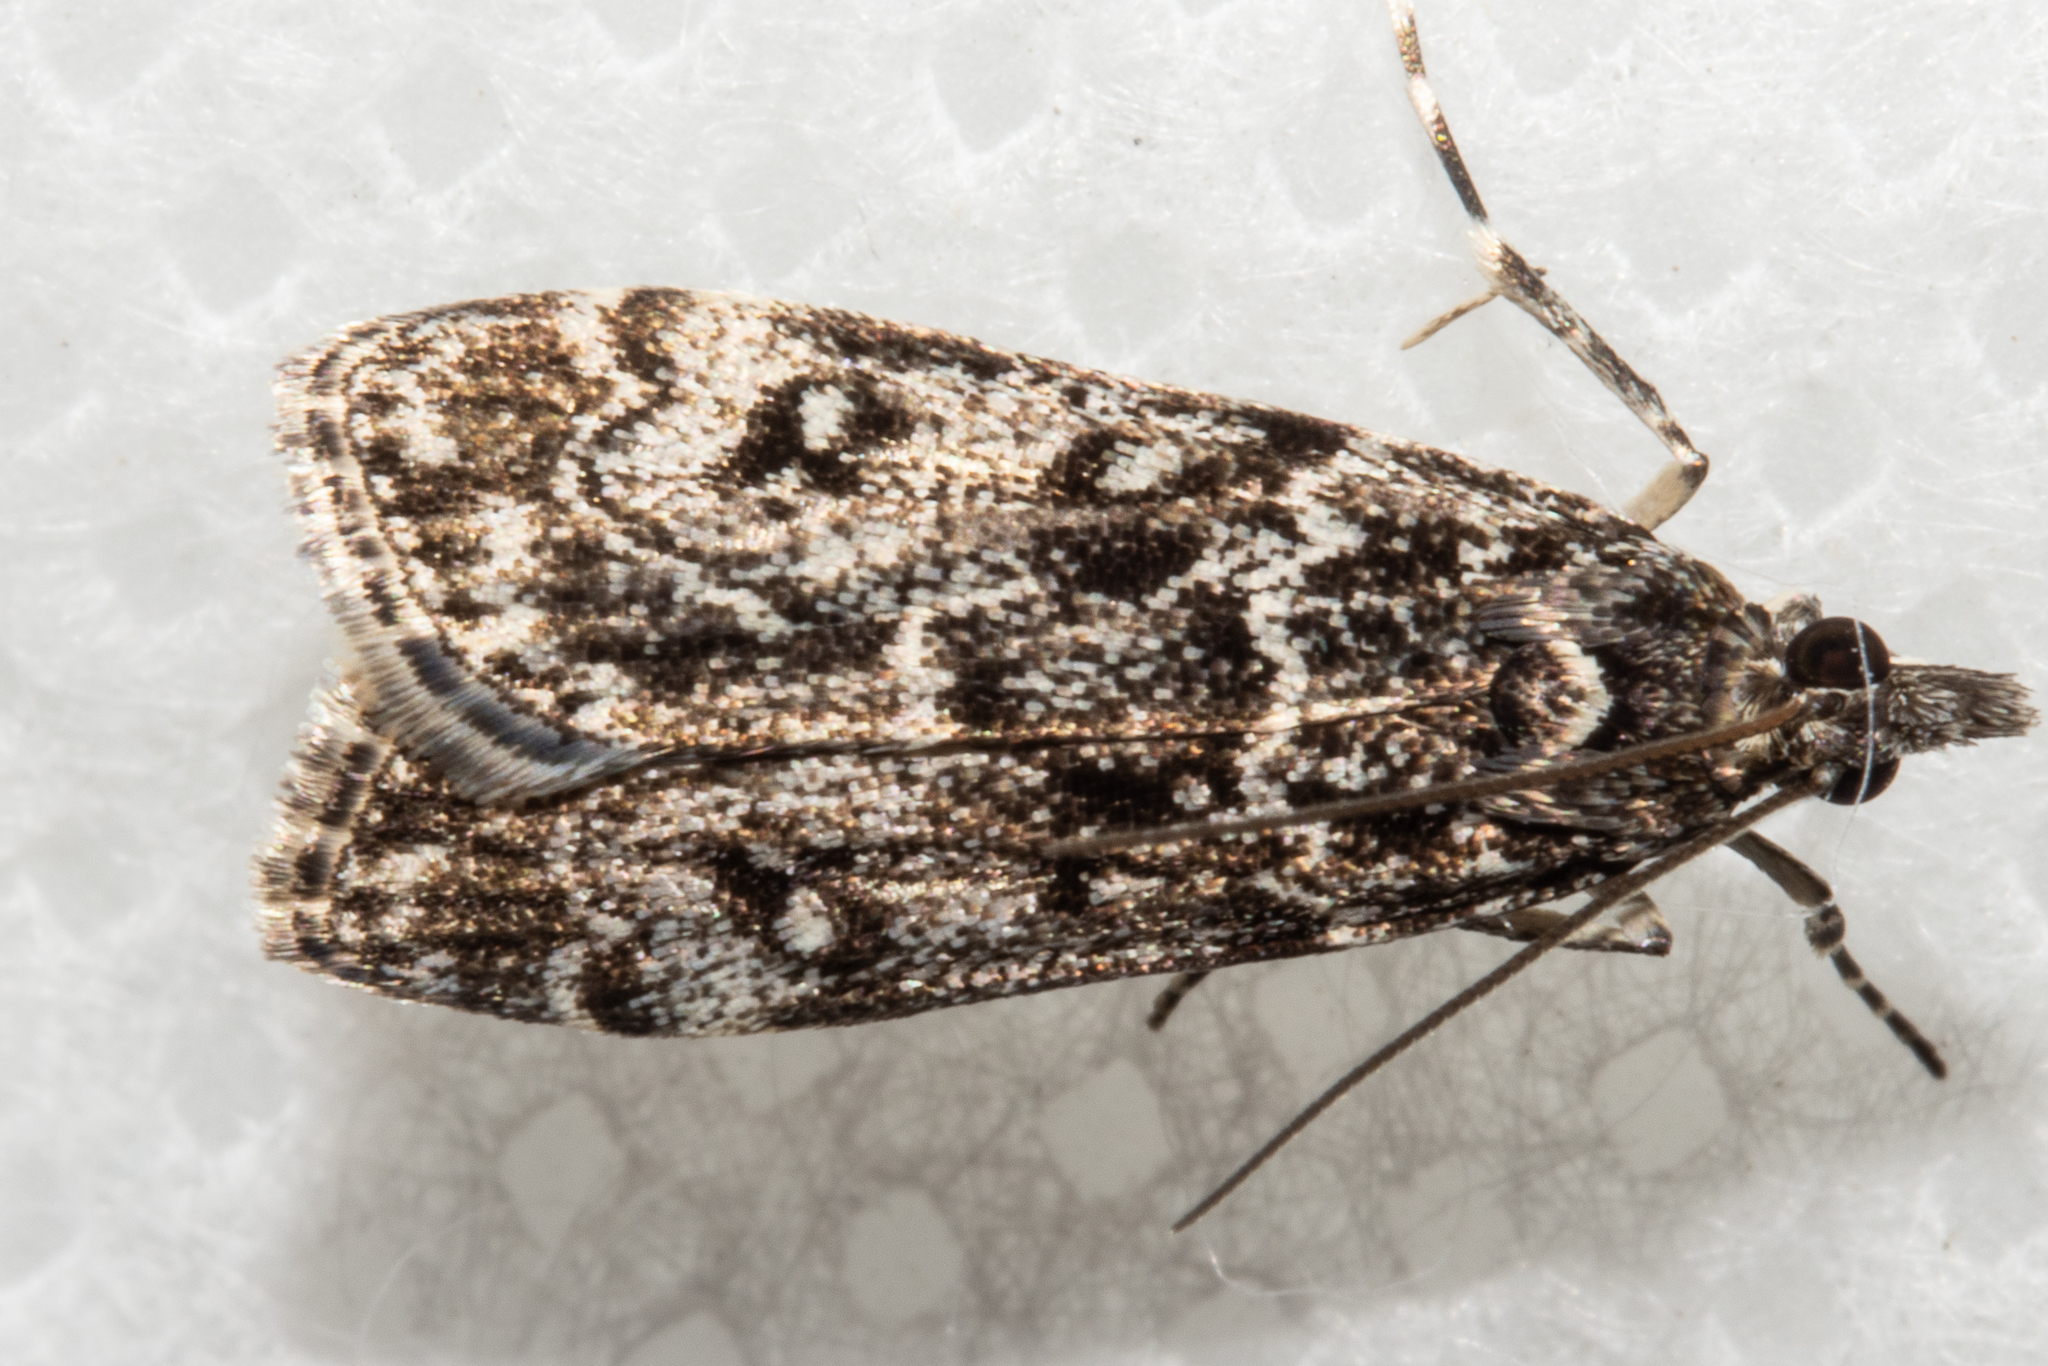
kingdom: Animalia
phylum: Arthropoda
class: Insecta
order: Lepidoptera
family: Crambidae
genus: Eudonia
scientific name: Eudonia philerga
